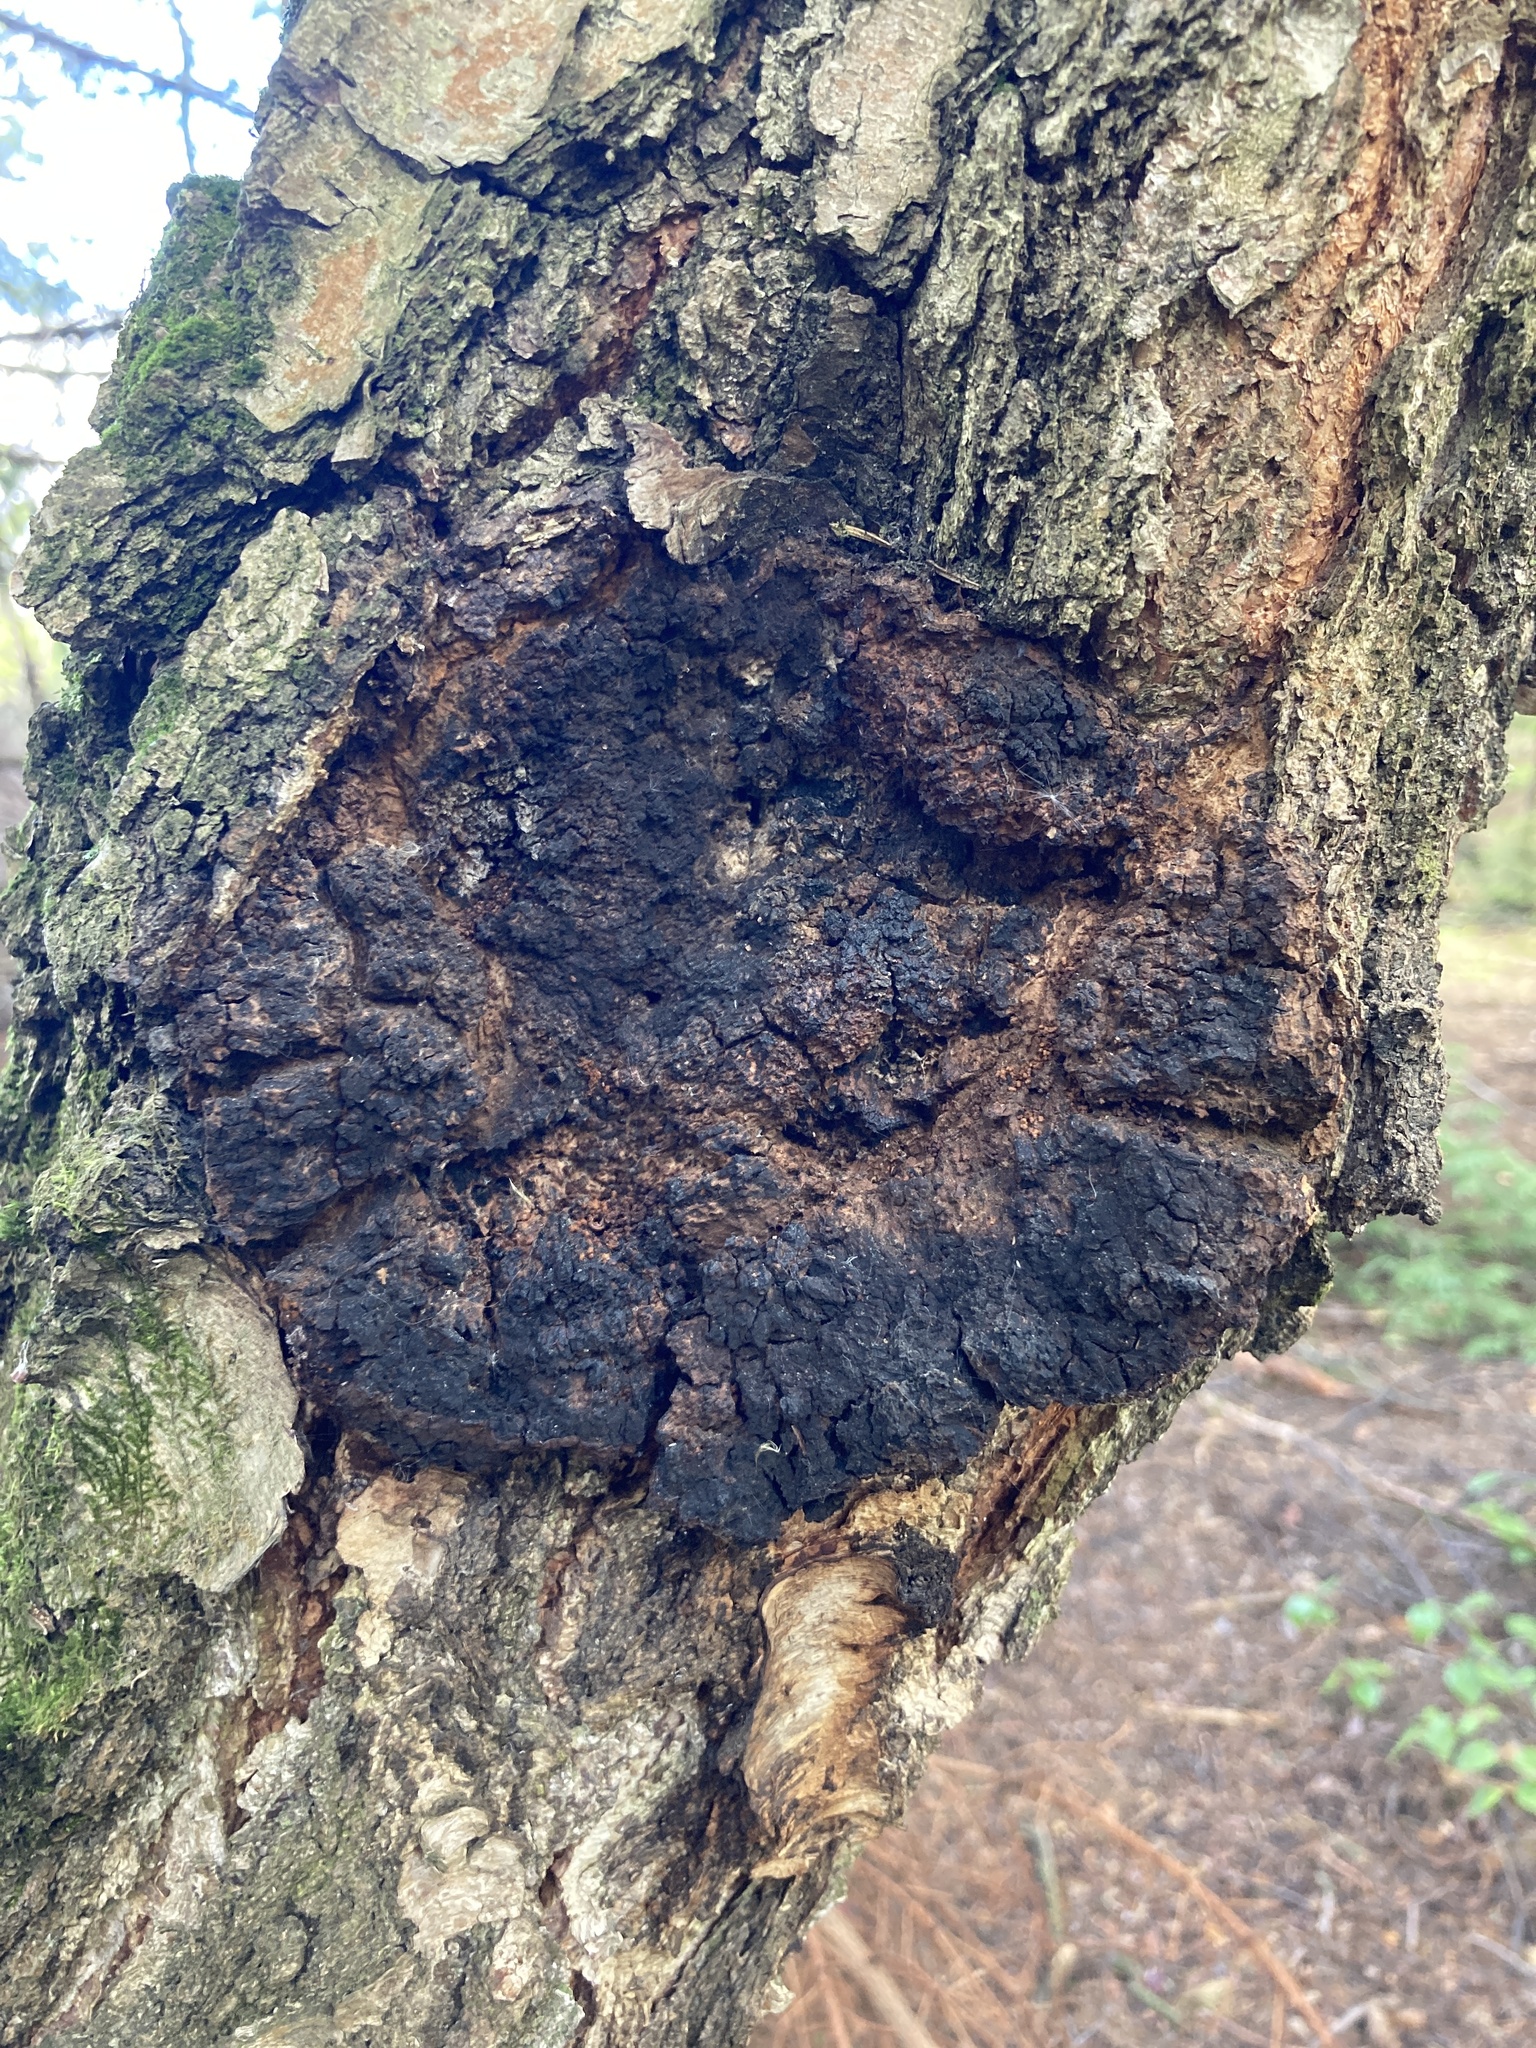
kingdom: Fungi
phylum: Basidiomycota
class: Agaricomycetes
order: Hymenochaetales
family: Hymenochaetaceae
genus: Inonotus
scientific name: Inonotus obliquus
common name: Chaga
